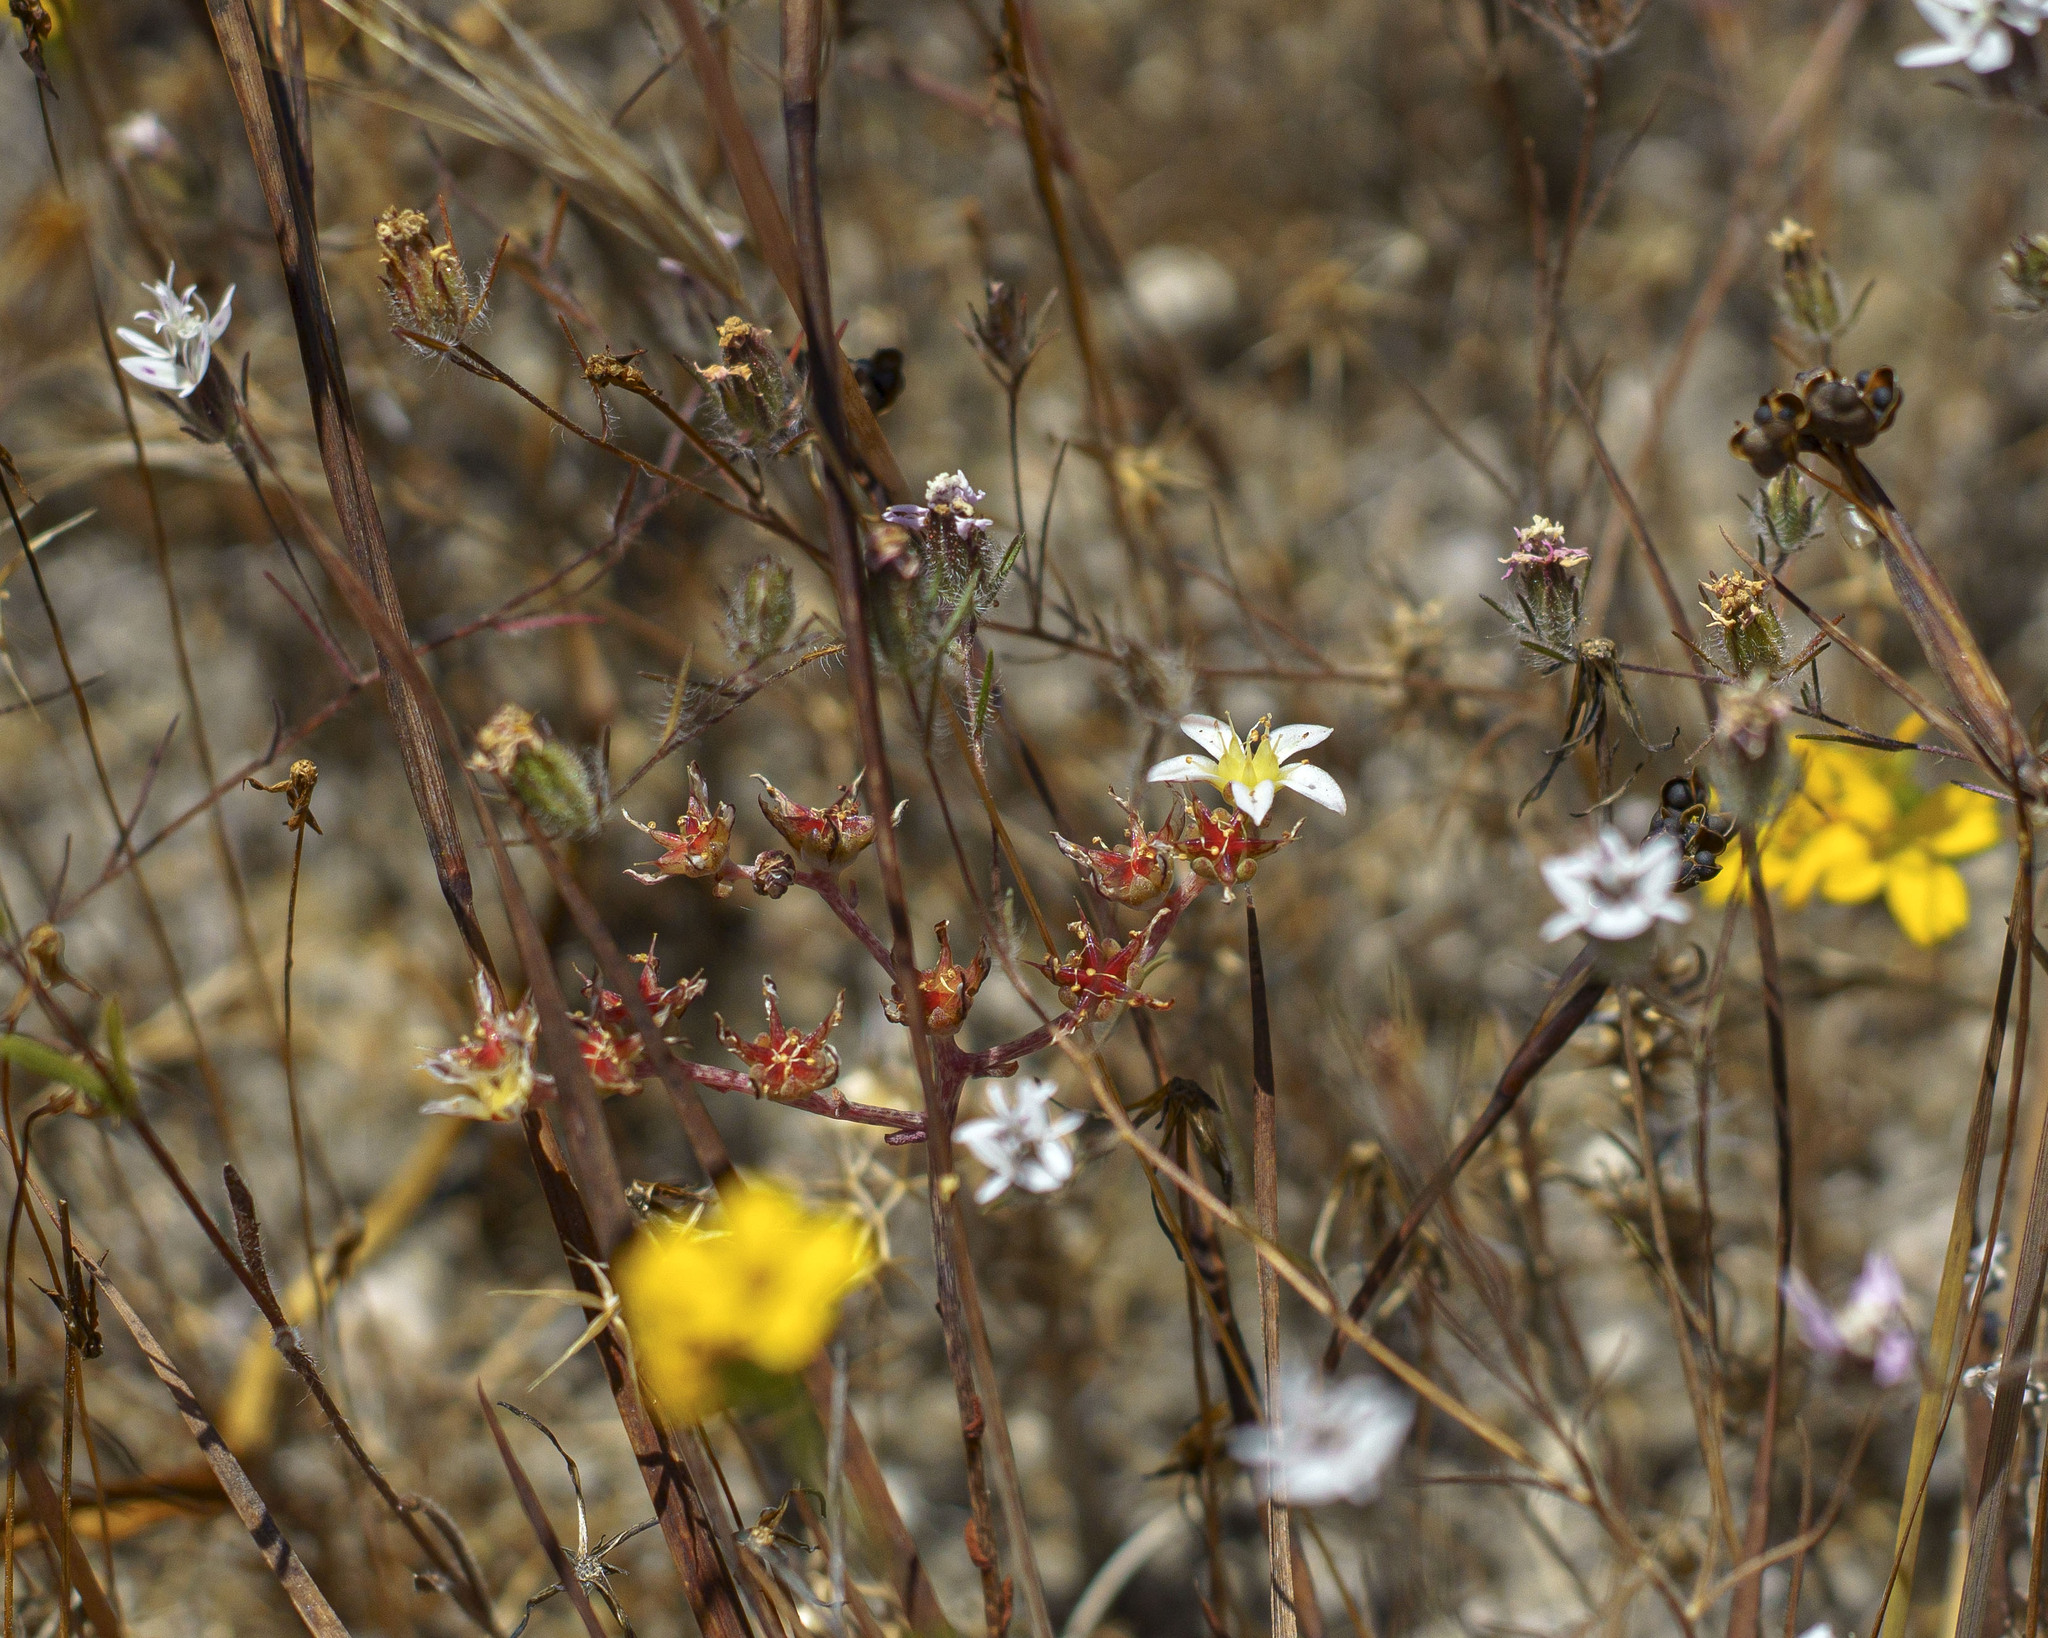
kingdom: Plantae
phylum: Tracheophyta
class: Magnoliopsida
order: Saxifragales
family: Crassulaceae
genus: Dudleya
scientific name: Dudleya blochmaniae
